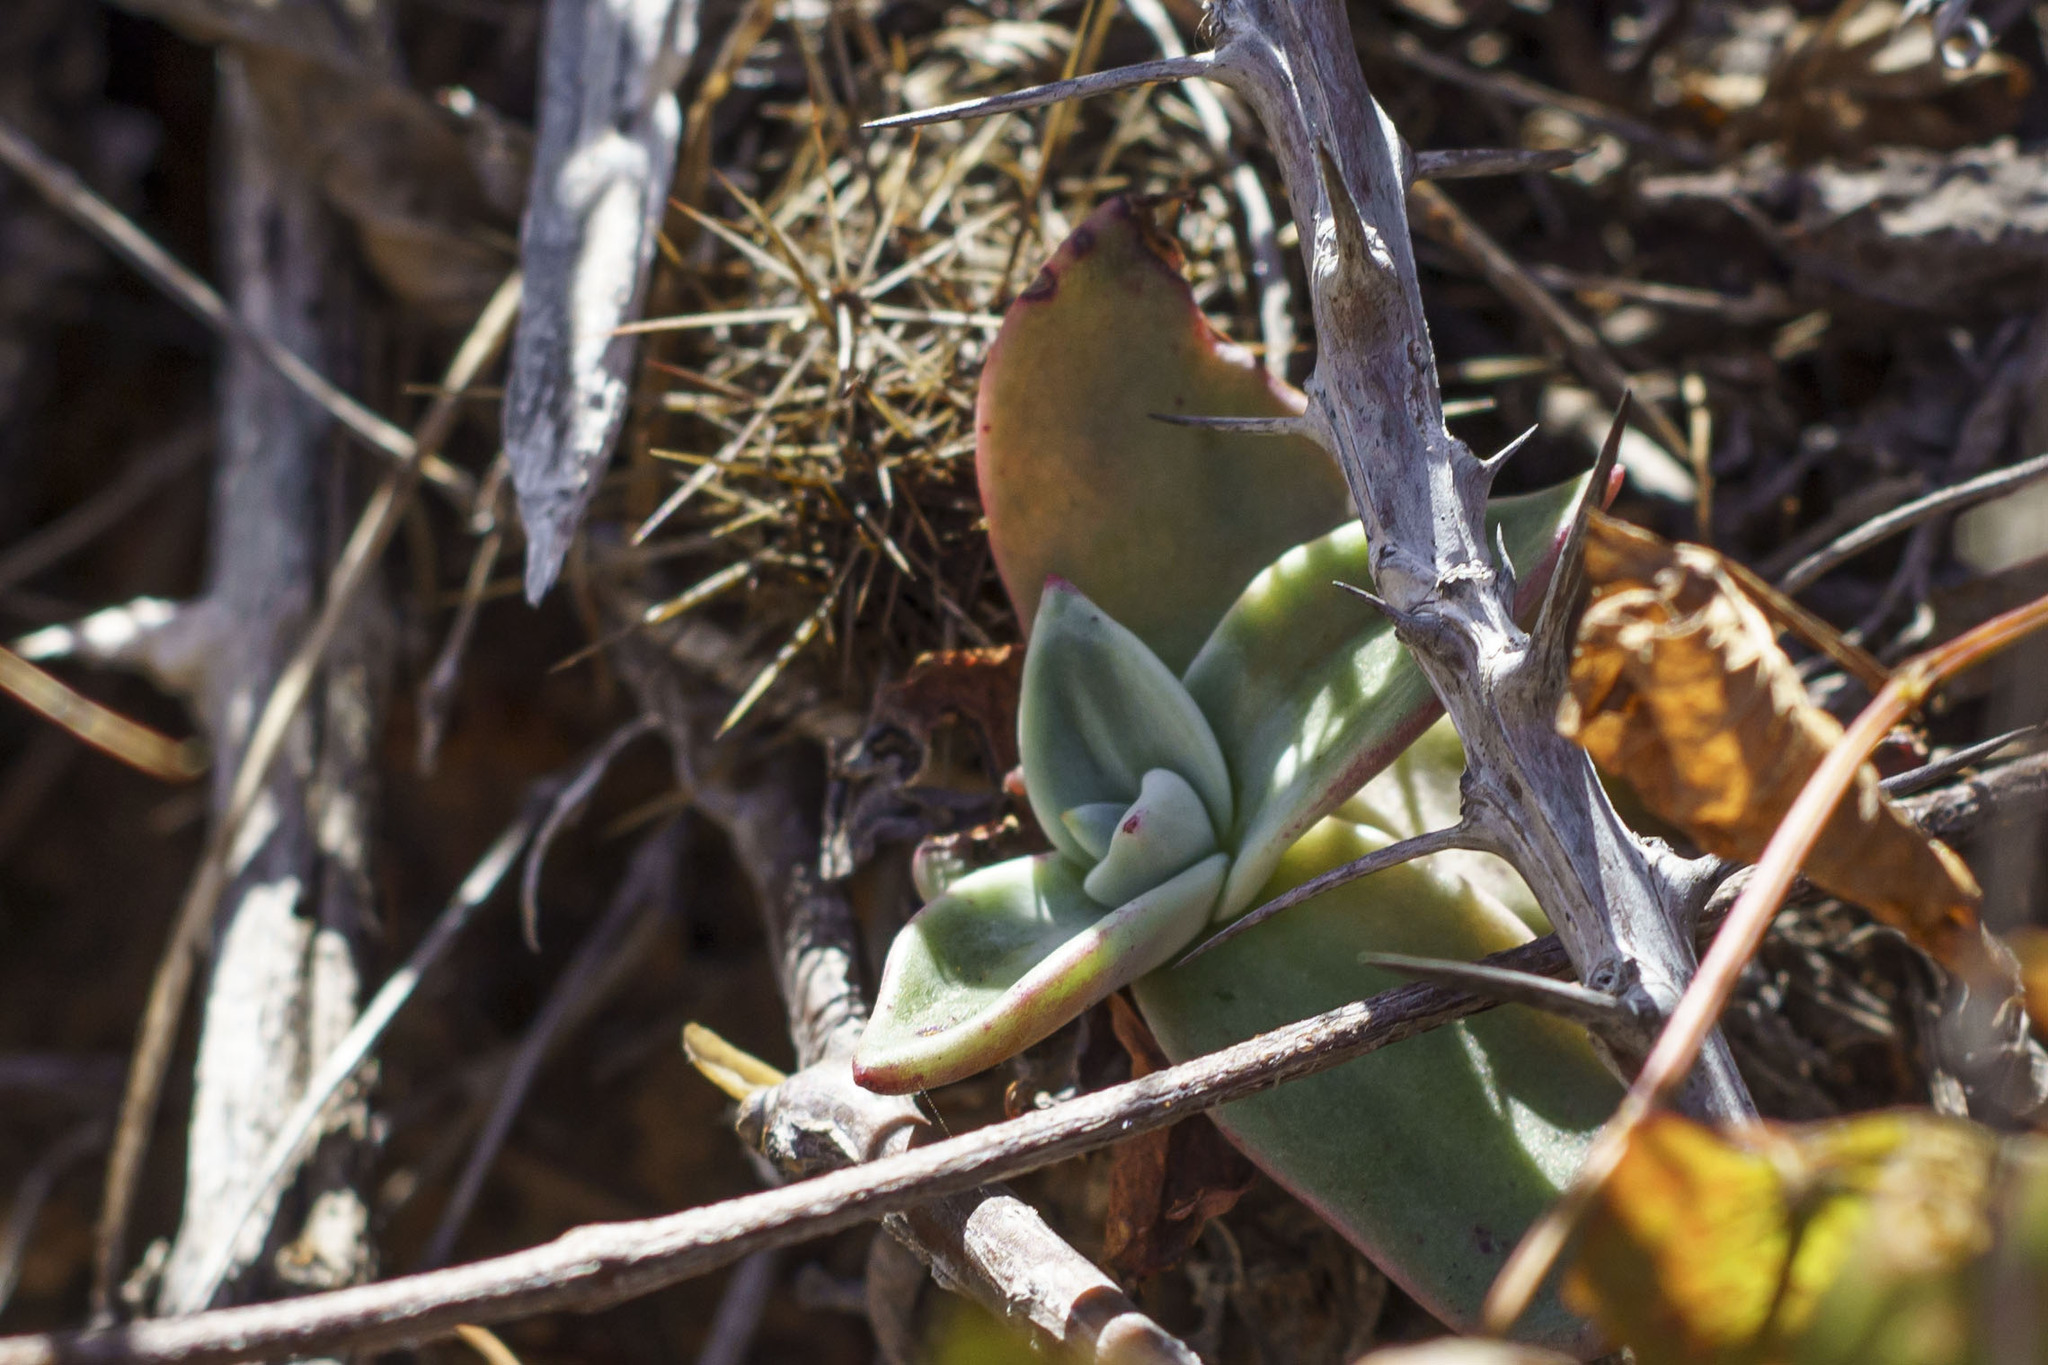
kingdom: Plantae
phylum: Tracheophyta
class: Magnoliopsida
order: Saxifragales
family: Crassulaceae
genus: Dudleya
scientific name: Dudleya nubigena
